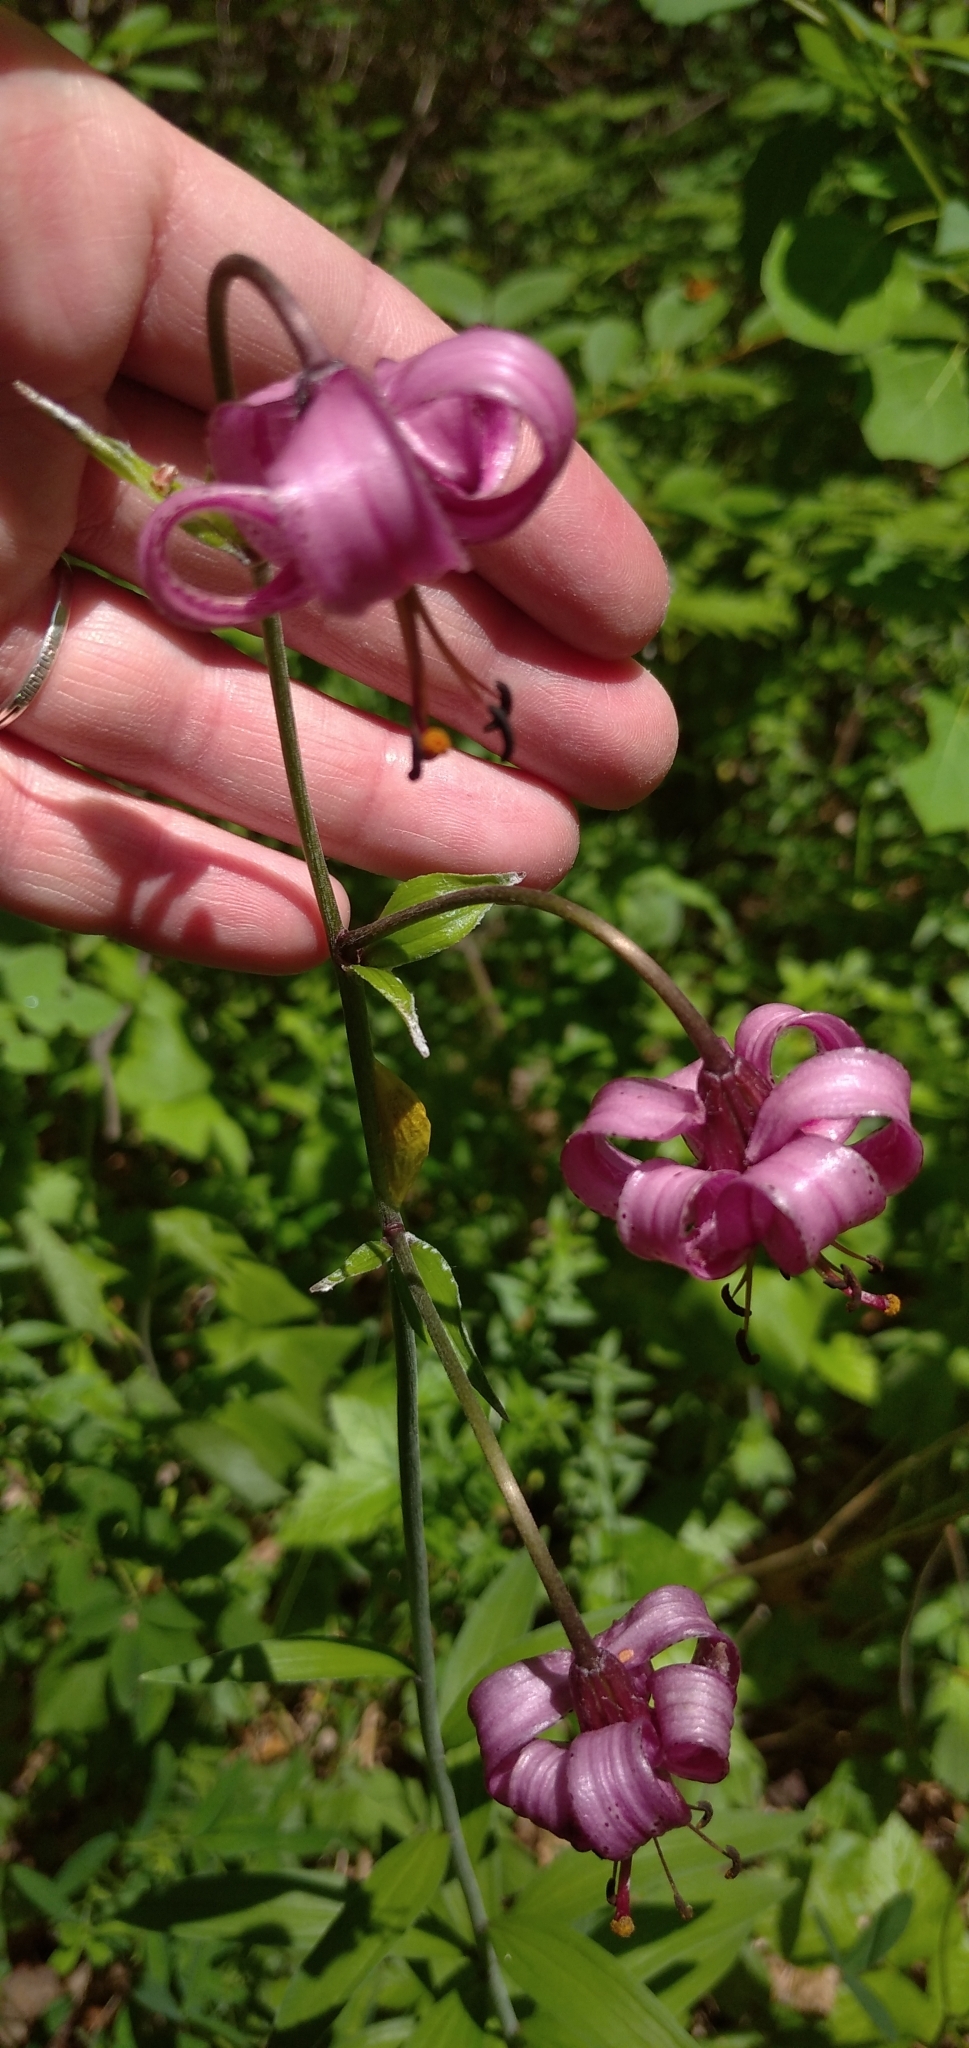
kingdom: Plantae
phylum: Tracheophyta
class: Liliopsida
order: Liliales
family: Liliaceae
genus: Lilium
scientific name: Lilium martagon
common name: Martagon lily
